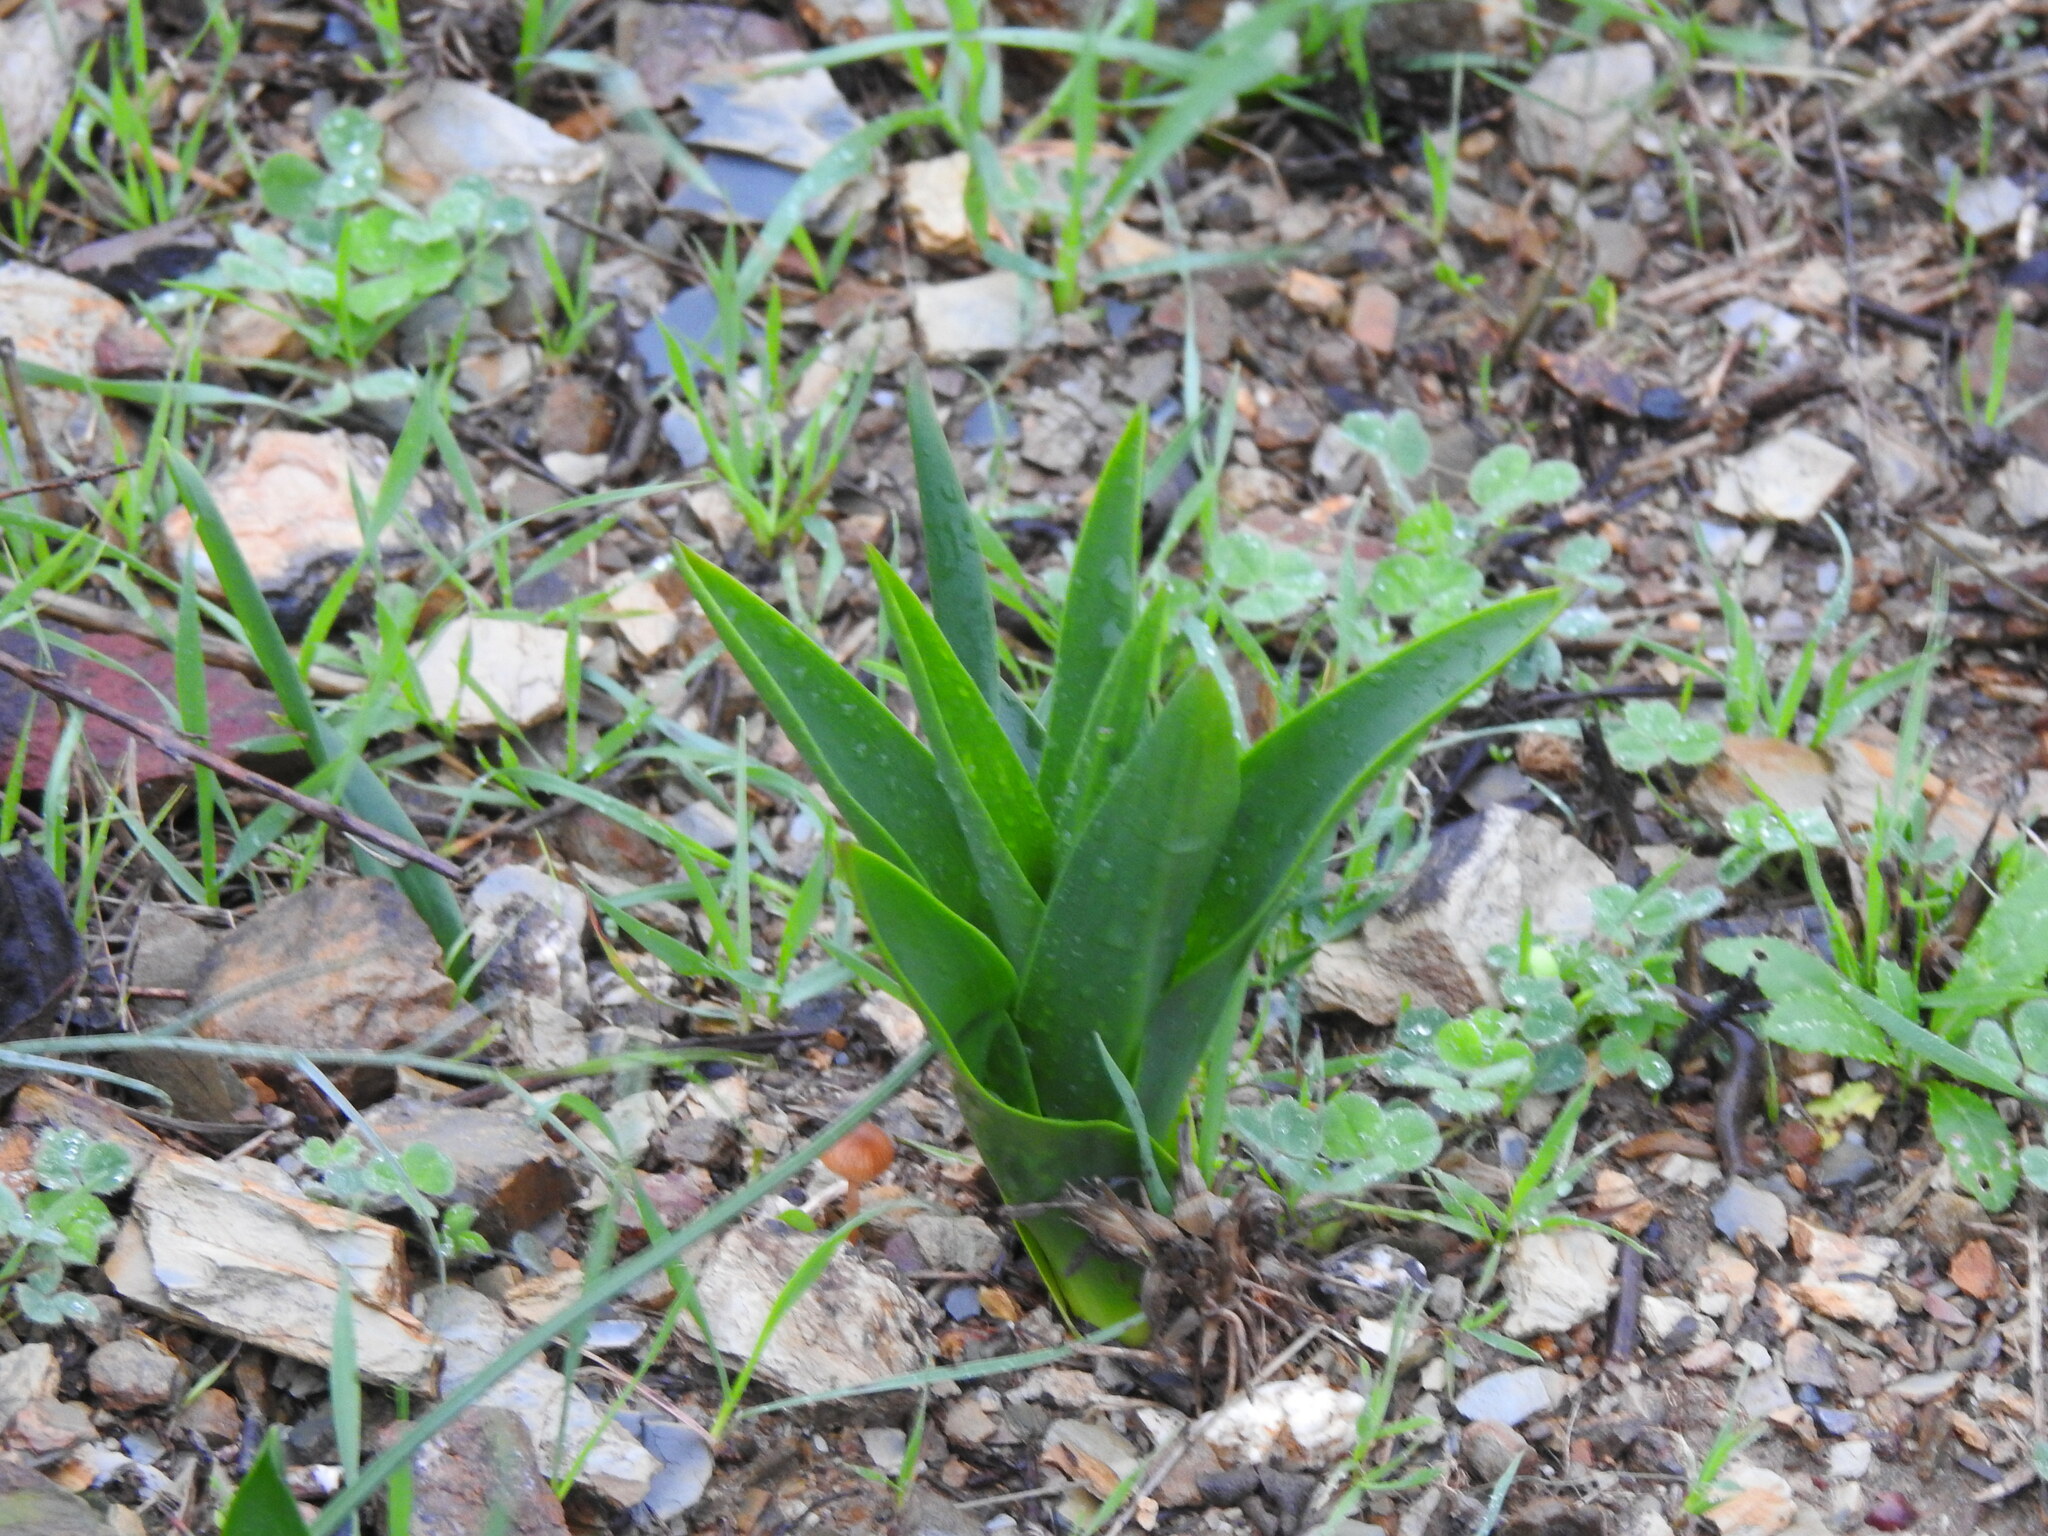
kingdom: Plantae
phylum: Tracheophyta
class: Liliopsida
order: Asparagales
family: Asparagaceae
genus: Drimia
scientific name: Drimia maritima
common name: Maritime squill
